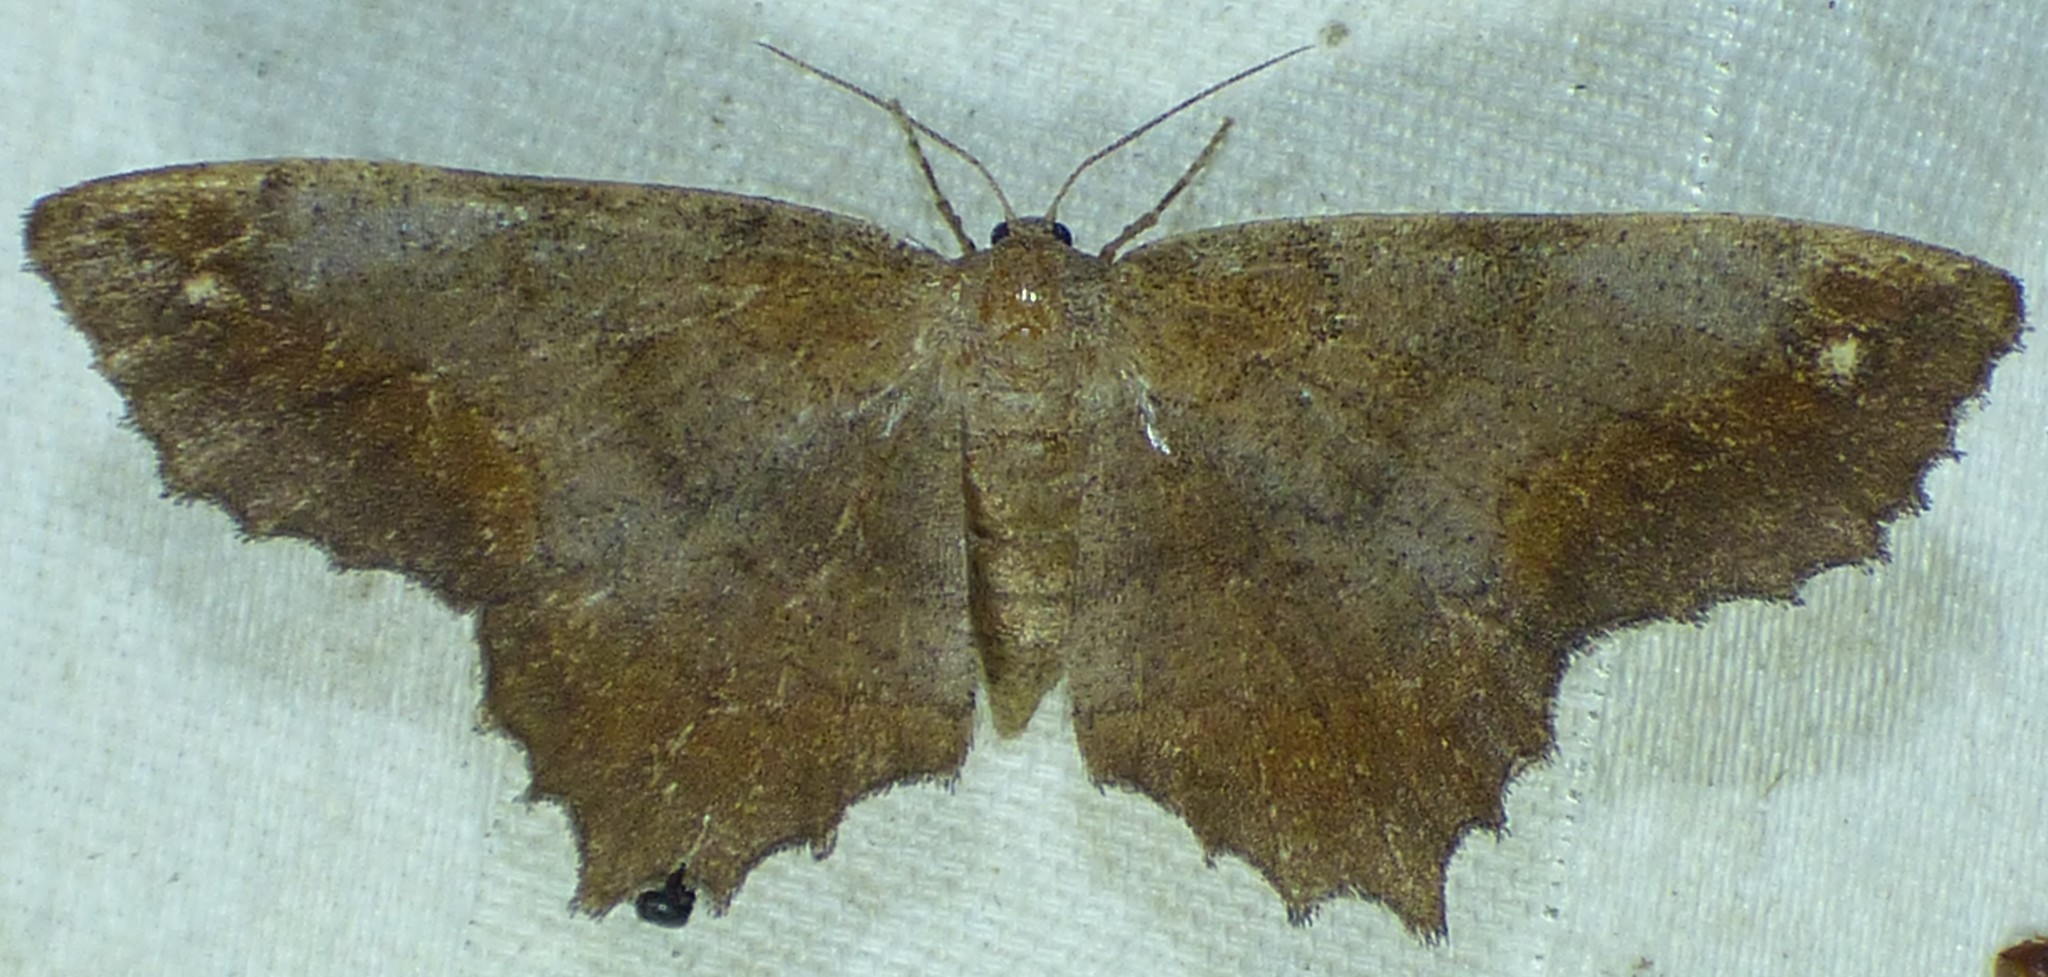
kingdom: Animalia
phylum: Arthropoda
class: Insecta
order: Lepidoptera
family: Geometridae
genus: Hypagyrtis
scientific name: Hypagyrtis esther
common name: Esther moth
